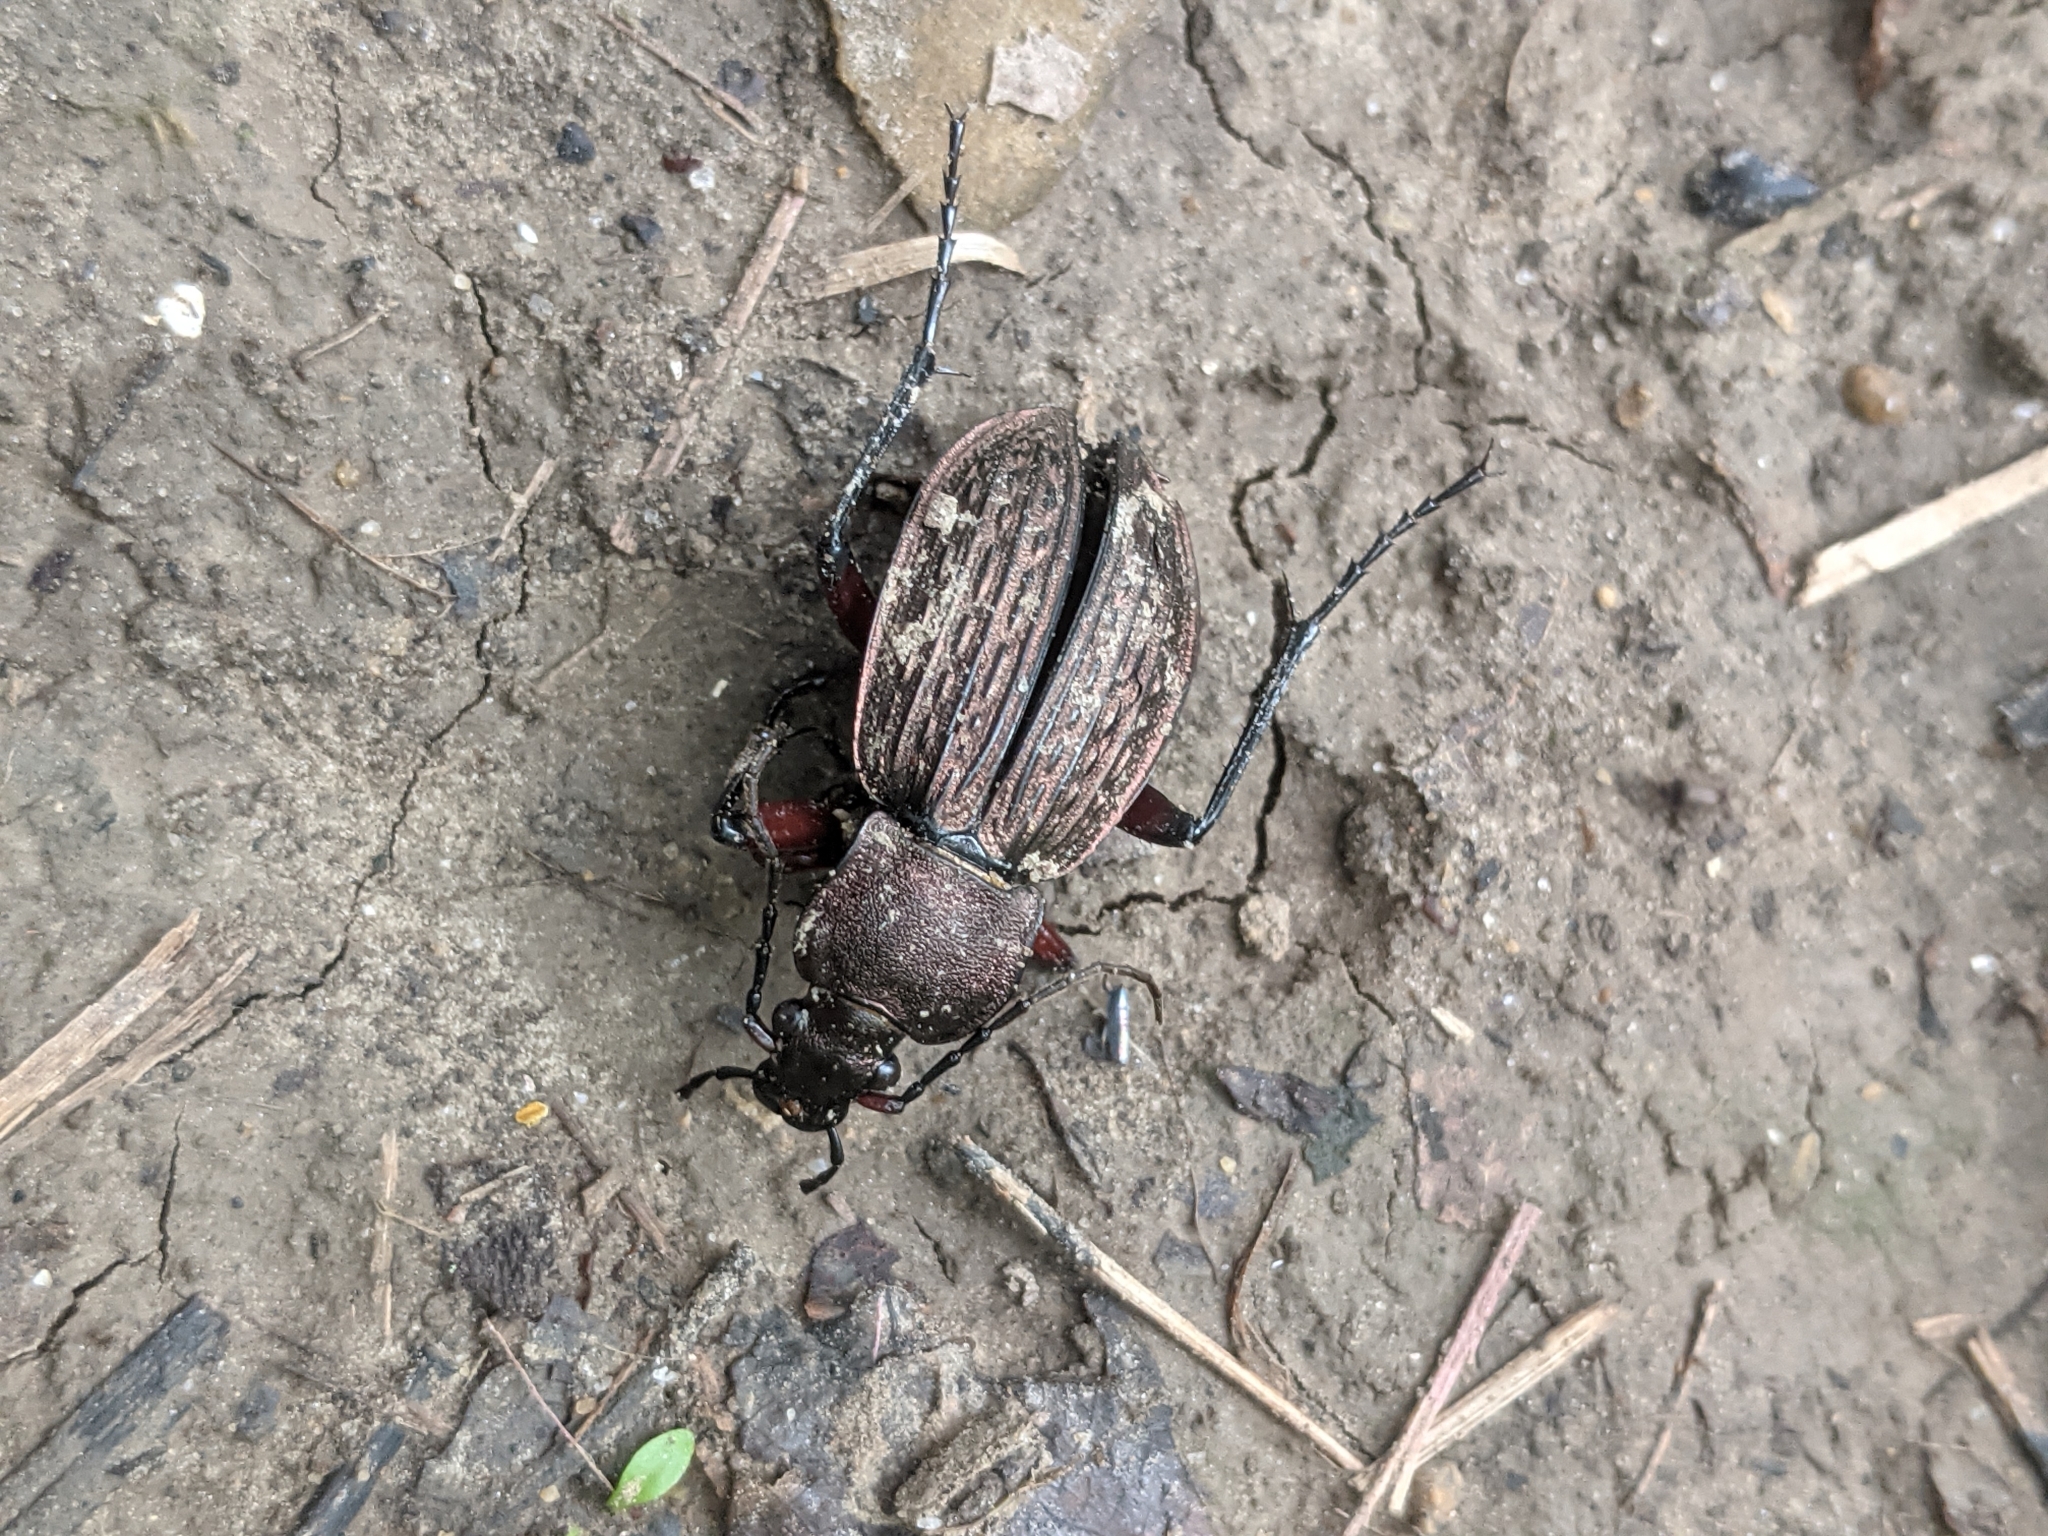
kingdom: Animalia
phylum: Arthropoda
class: Insecta
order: Coleoptera
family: Carabidae
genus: Carabus
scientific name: Carabus cancellatus
